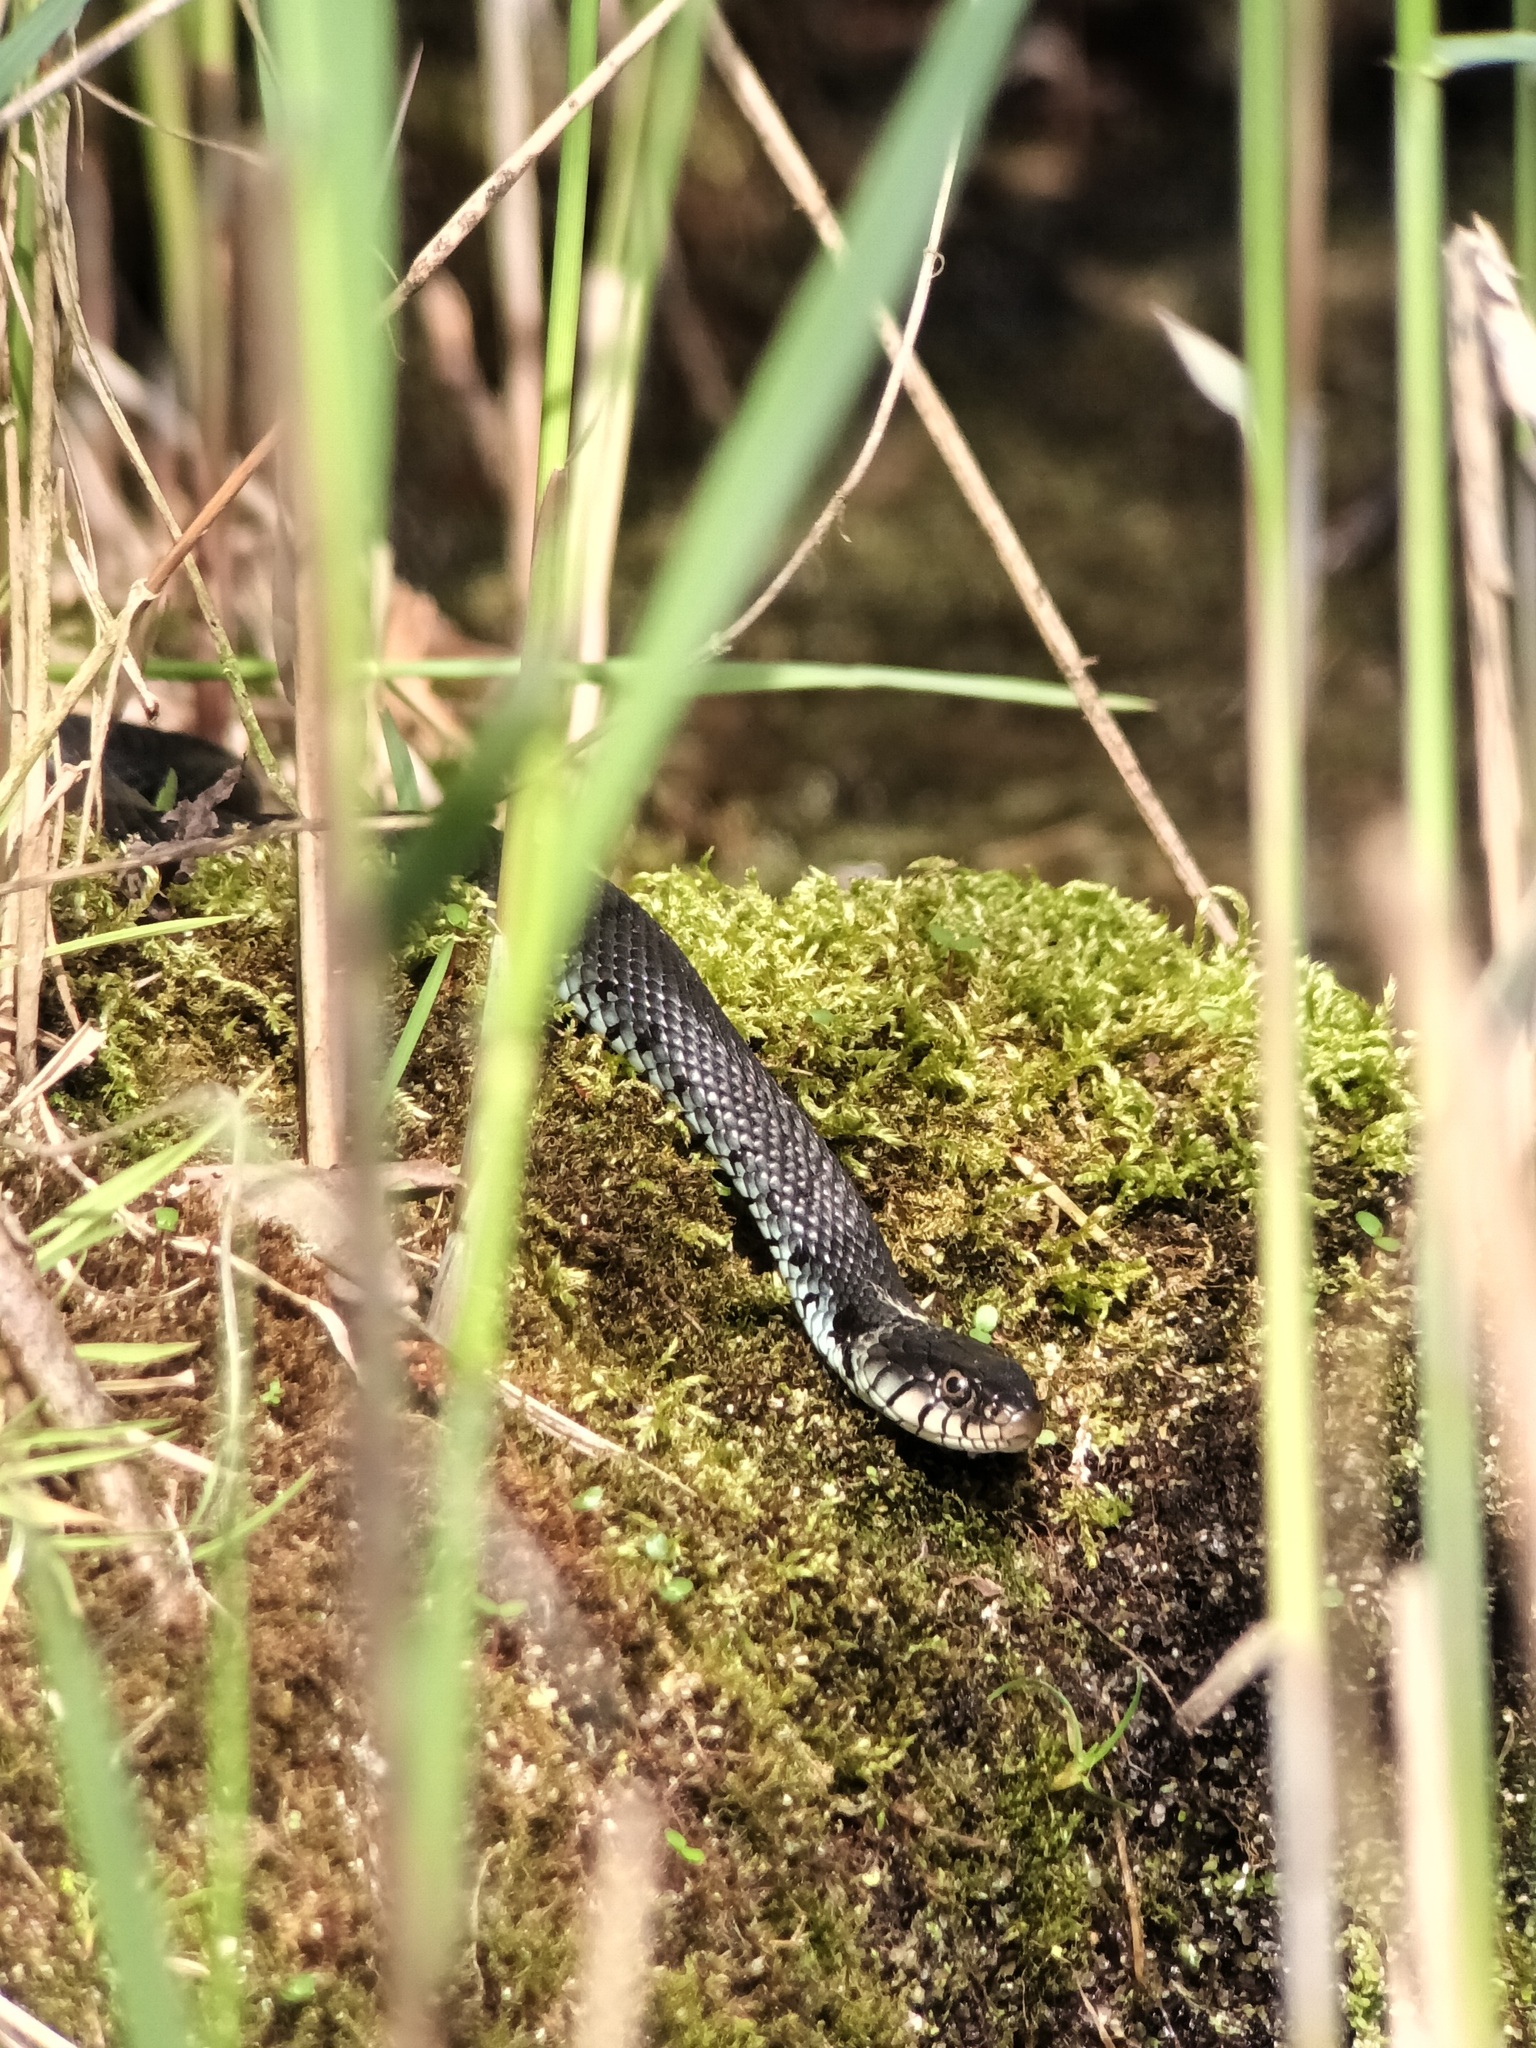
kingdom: Animalia
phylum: Chordata
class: Squamata
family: Colubridae
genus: Natrix
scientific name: Natrix helvetica
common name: Banded grass snake
